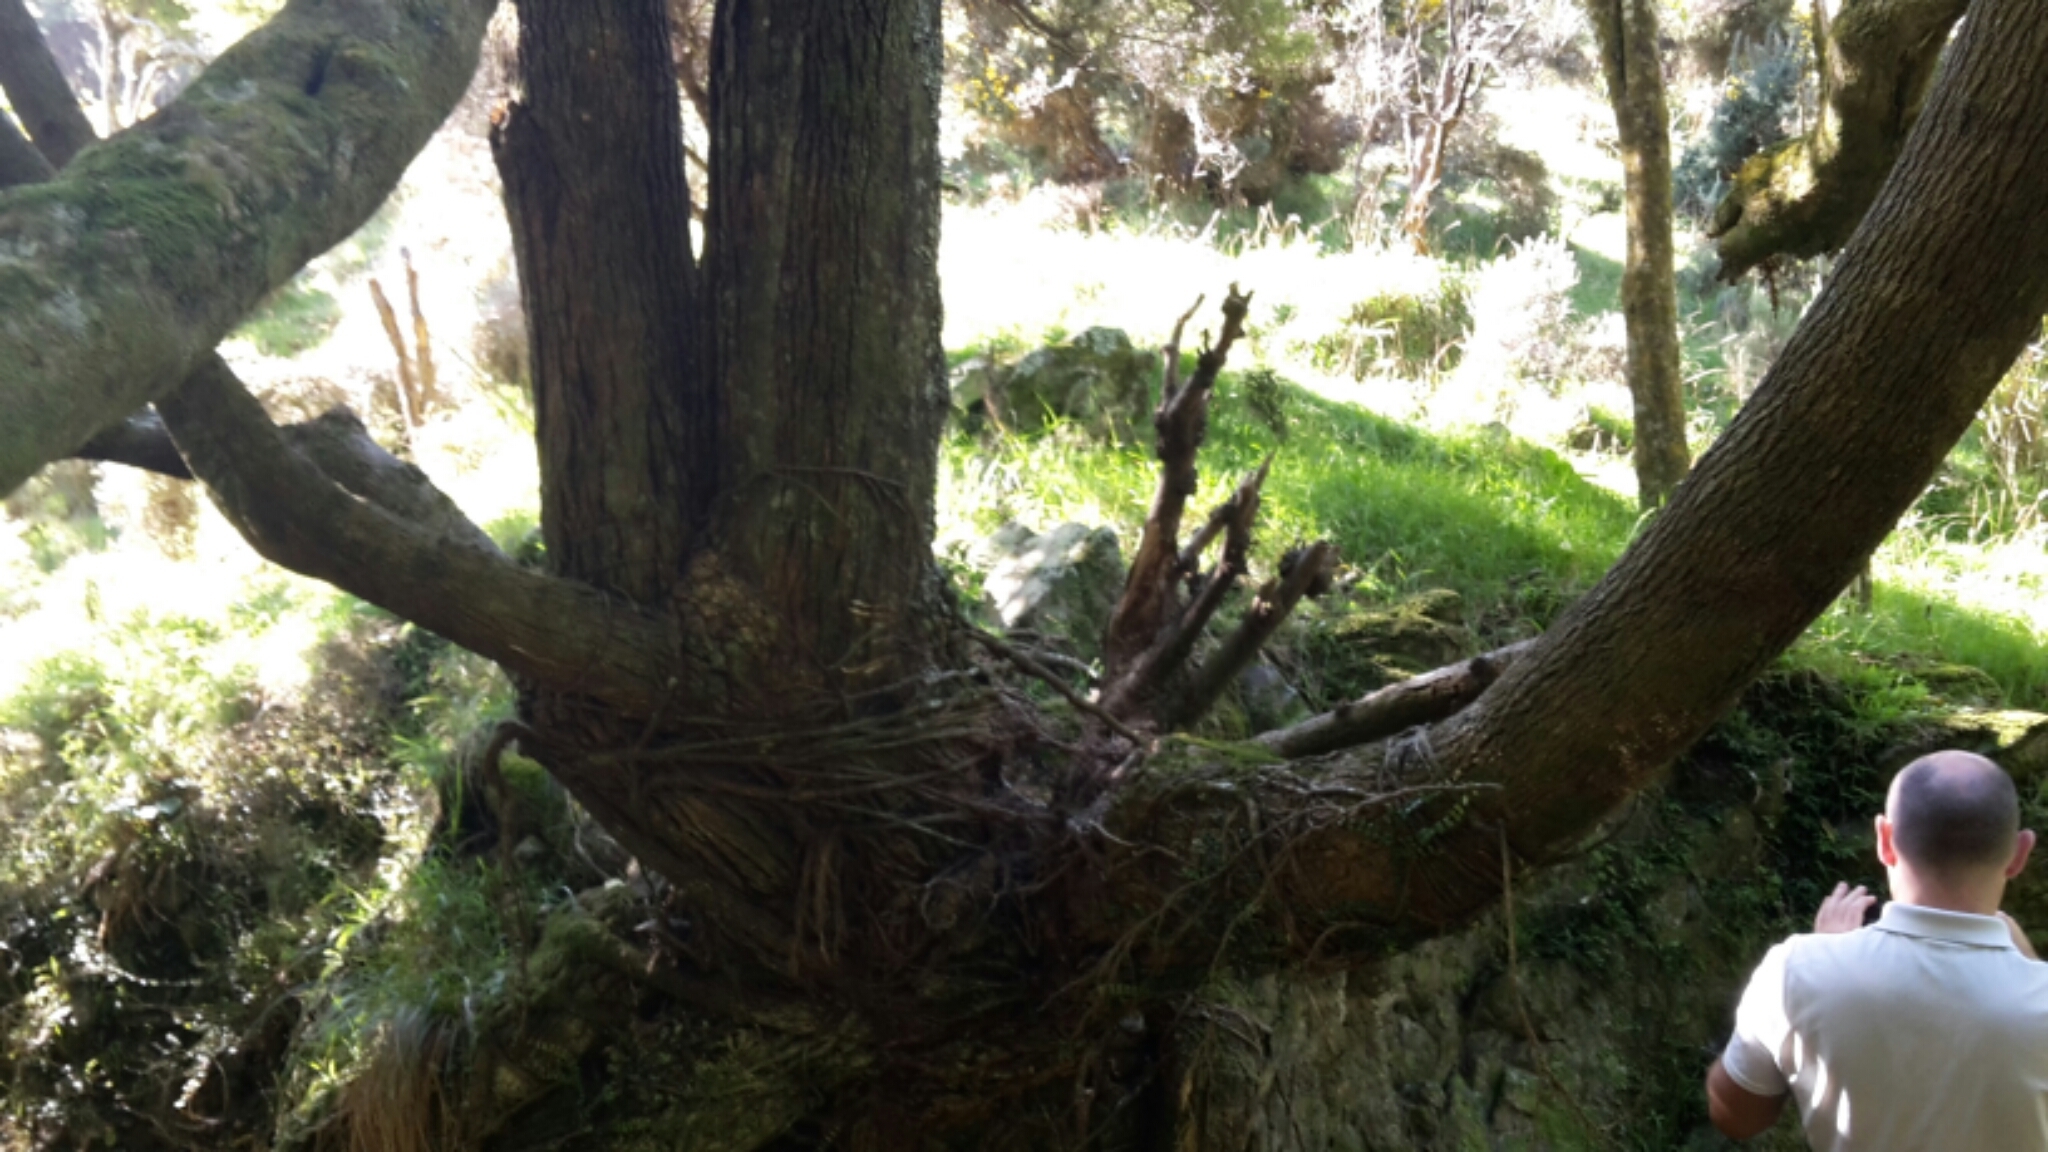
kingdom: Plantae
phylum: Tracheophyta
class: Magnoliopsida
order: Apiales
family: Griseliniaceae
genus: Griselinia
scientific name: Griselinia lucida
